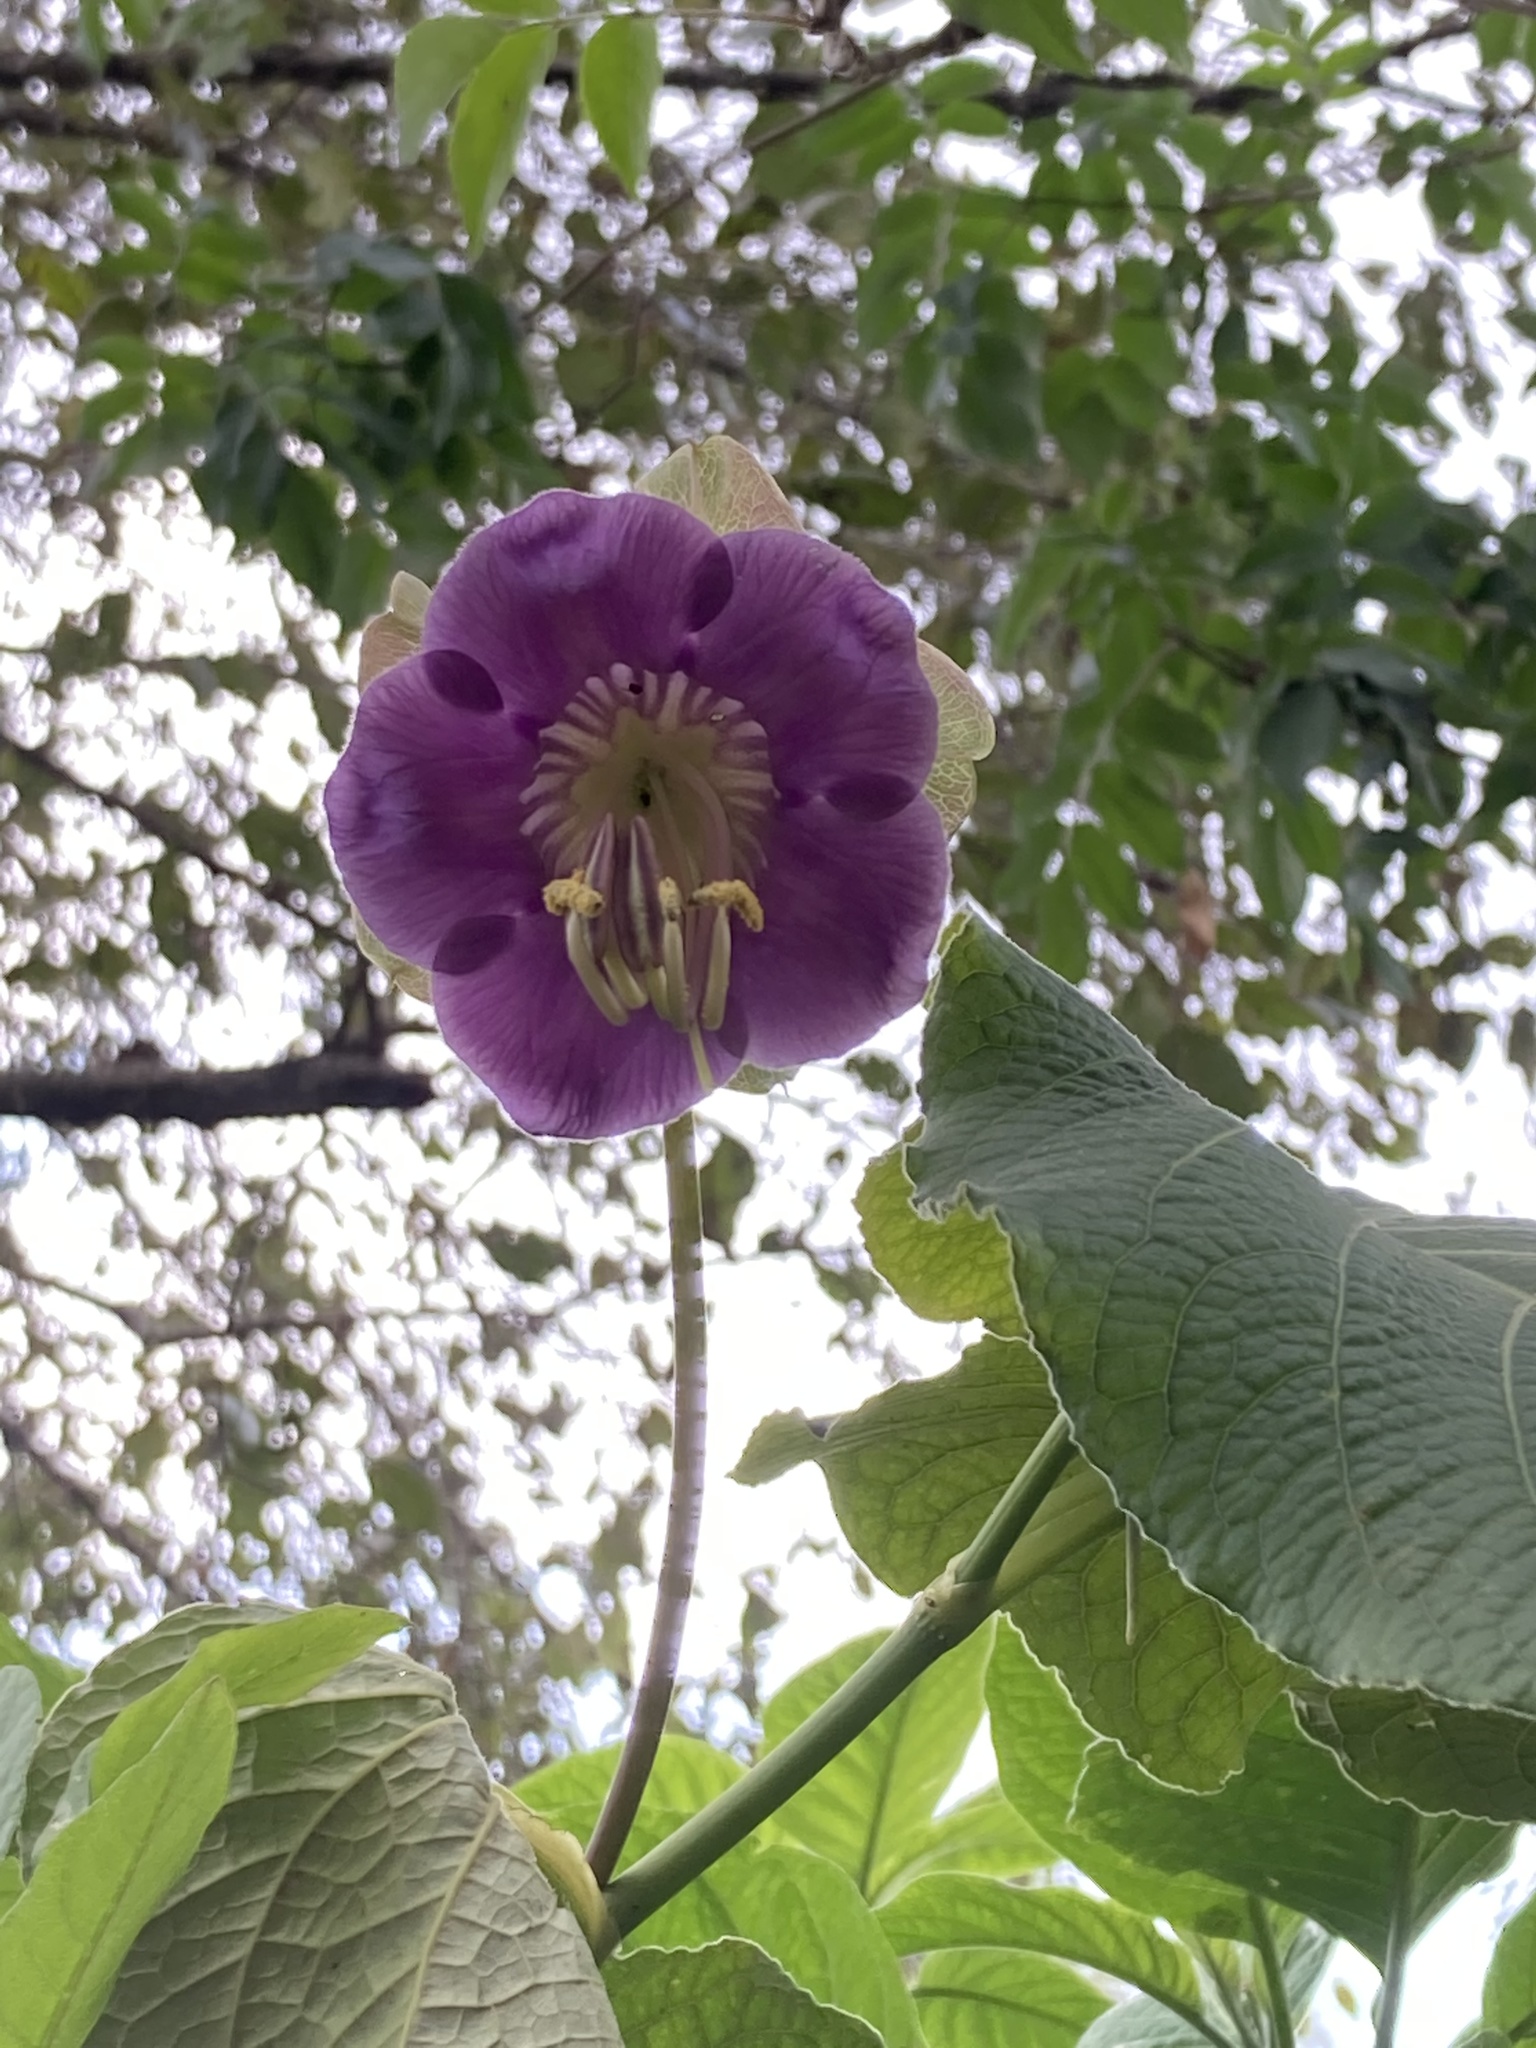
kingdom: Plantae
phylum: Tracheophyta
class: Magnoliopsida
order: Ericales
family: Polemoniaceae
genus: Cobaea
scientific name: Cobaea scandens
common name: Cup-and-saucer-vine
